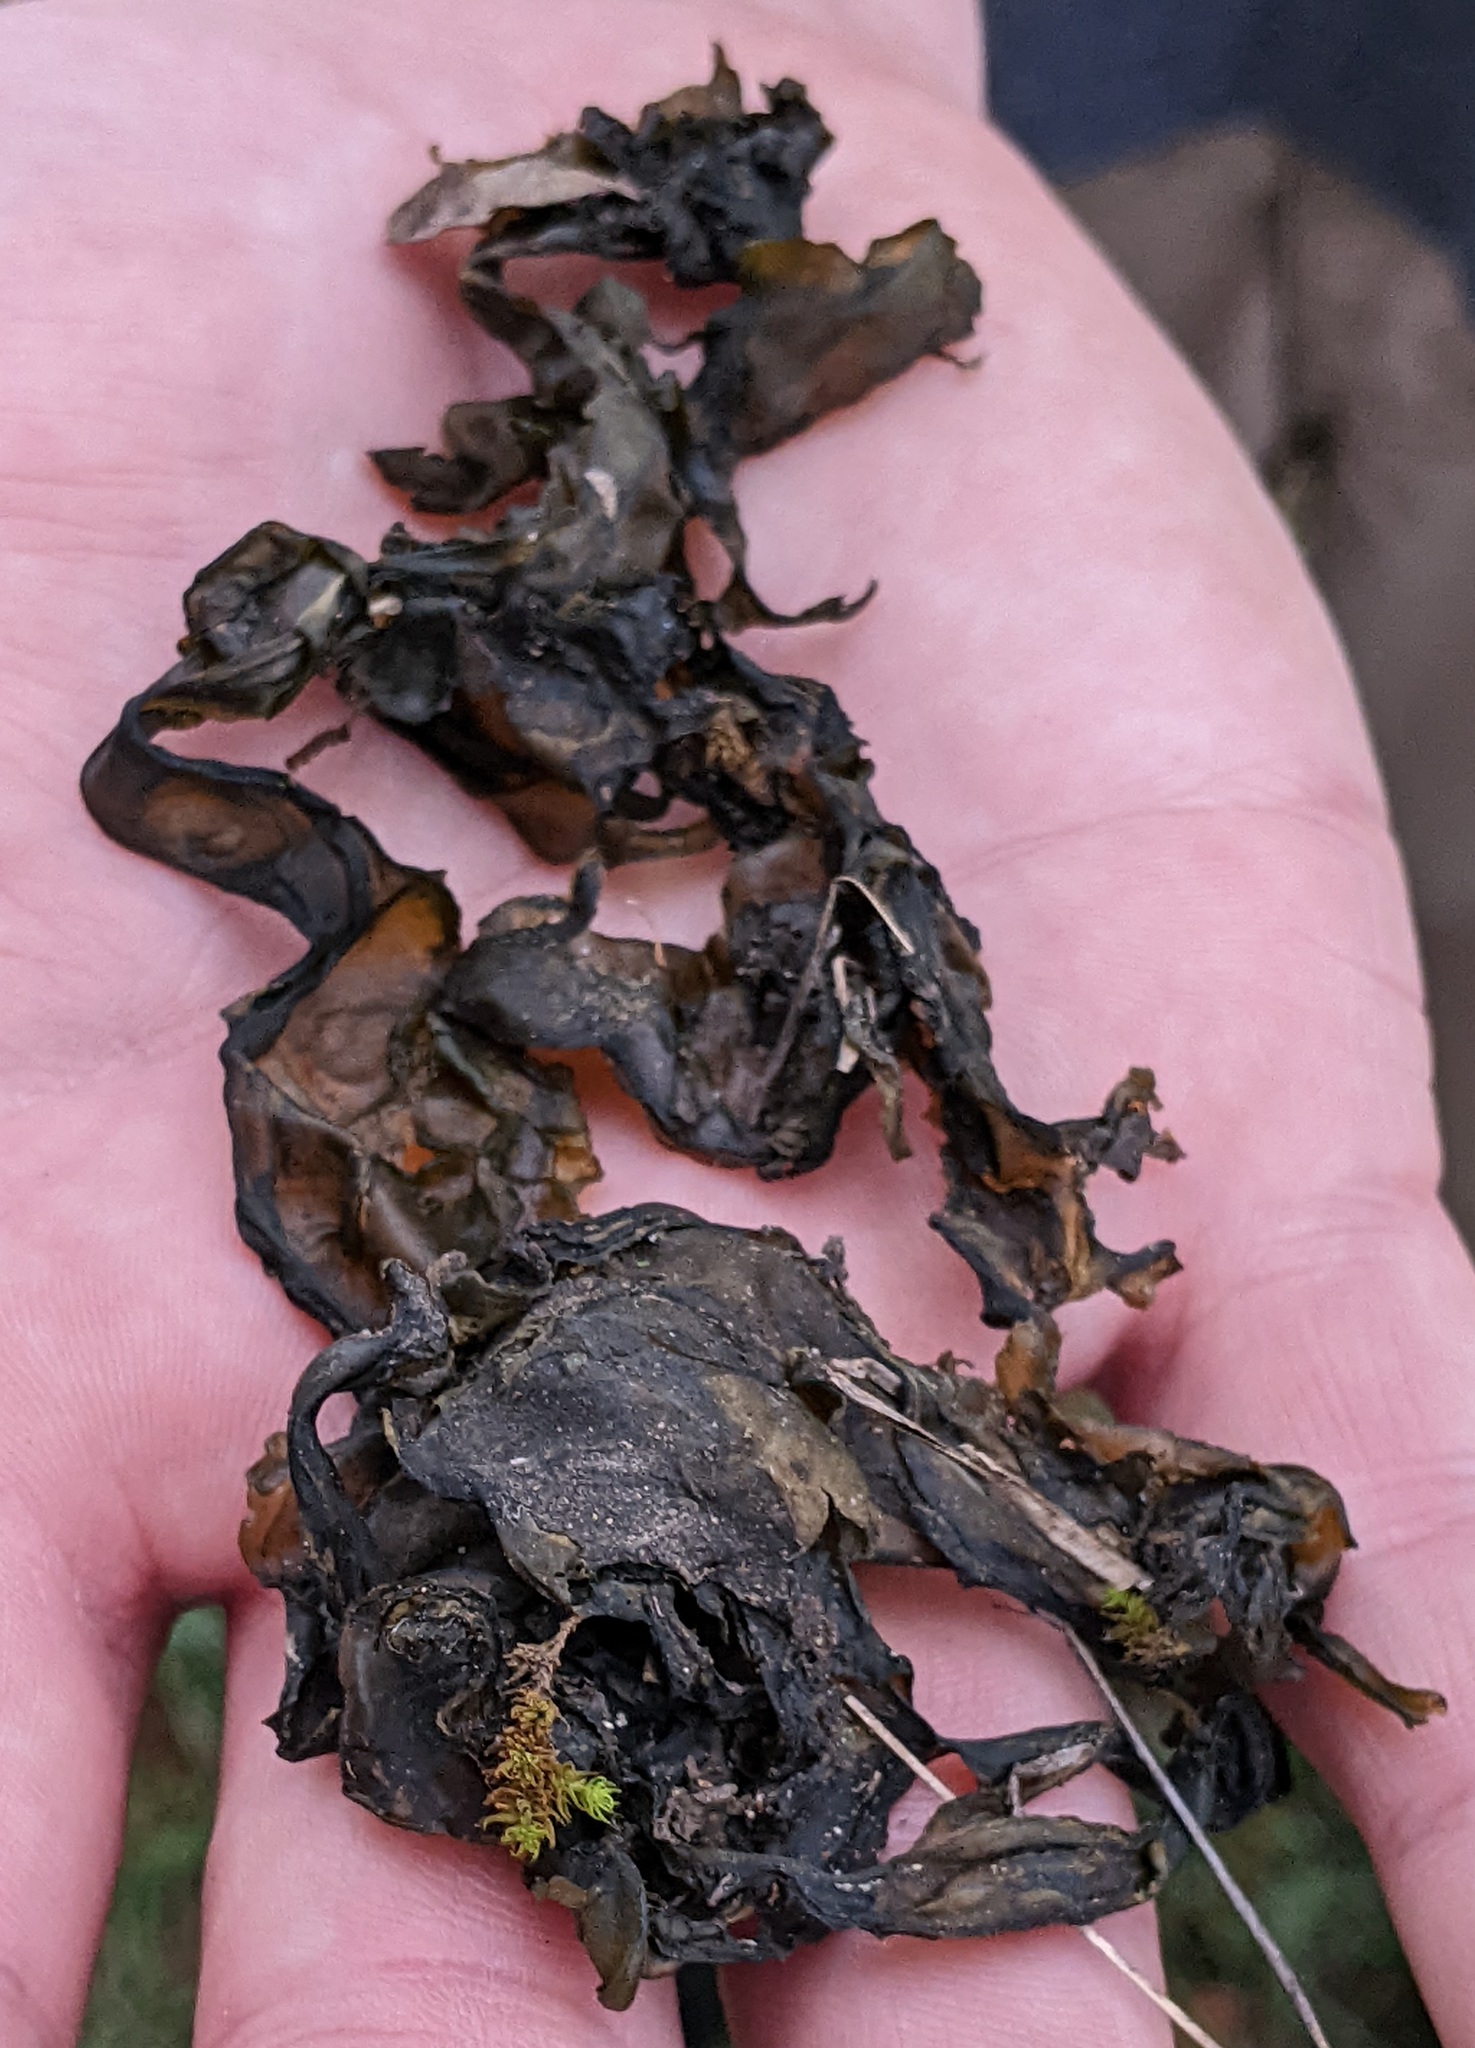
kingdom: Bacteria
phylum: Cyanobacteria
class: Cyanobacteriia
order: Cyanobacteriales
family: Nostocaceae
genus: Nostoc
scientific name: Nostoc commune
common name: Star jelly
